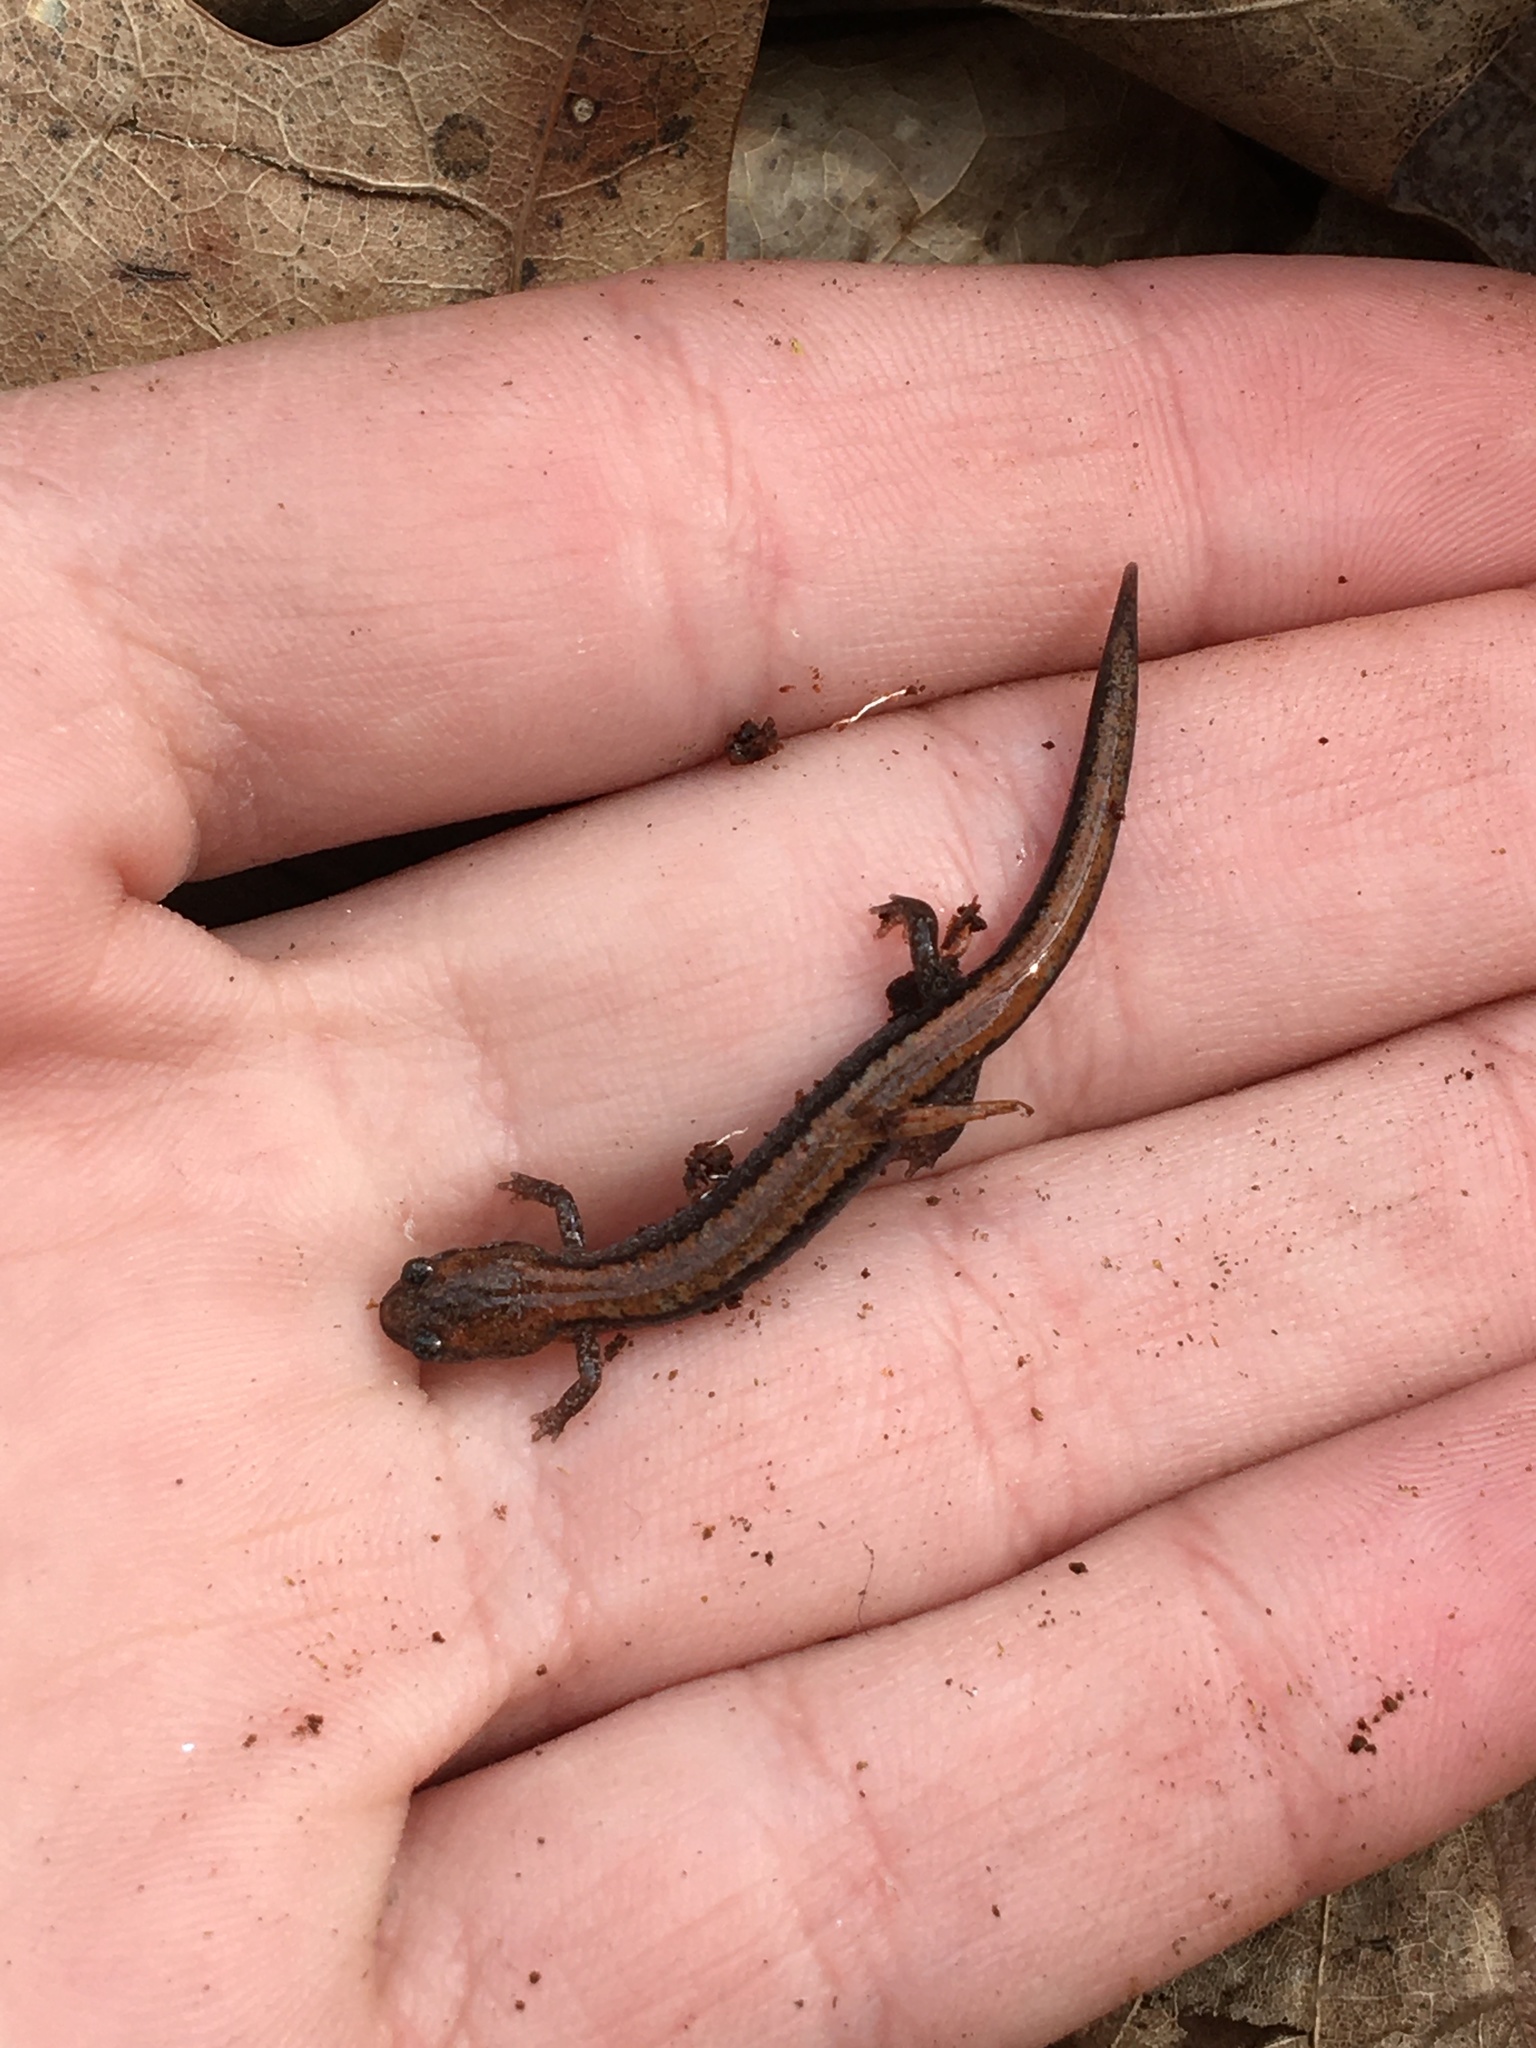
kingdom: Animalia
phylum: Chordata
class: Amphibia
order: Caudata
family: Plethodontidae
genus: Plethodon
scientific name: Plethodon cinereus
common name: Redback salamander
